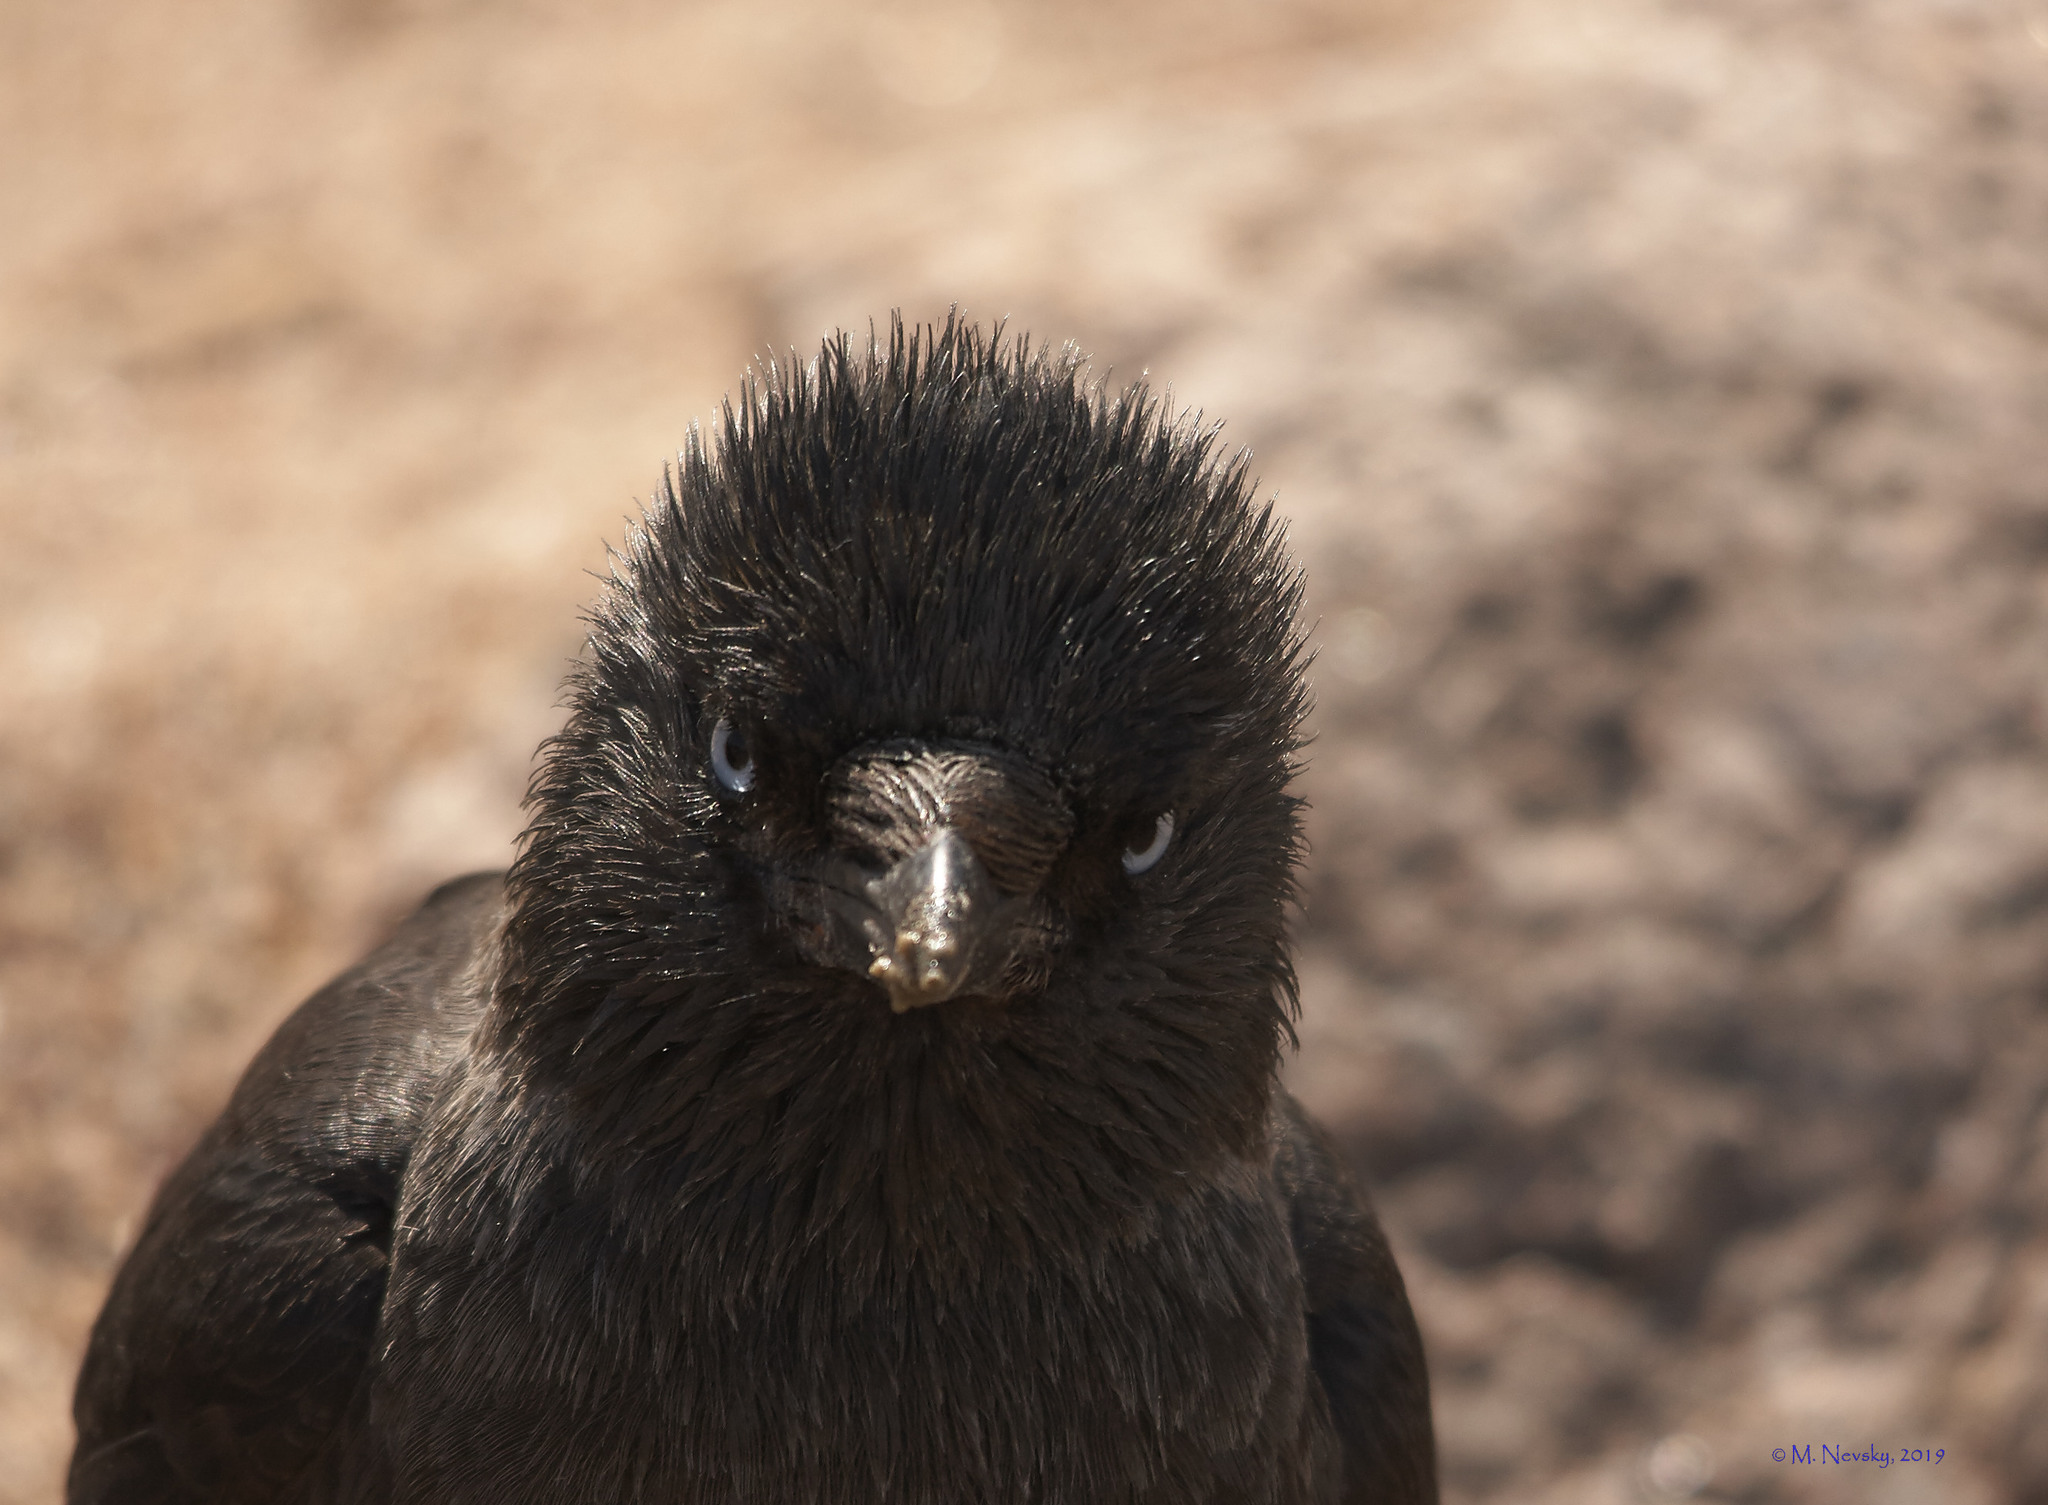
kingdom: Animalia
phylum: Chordata
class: Aves
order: Passeriformes
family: Corvidae
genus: Coloeus
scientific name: Coloeus monedula
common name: Western jackdaw
